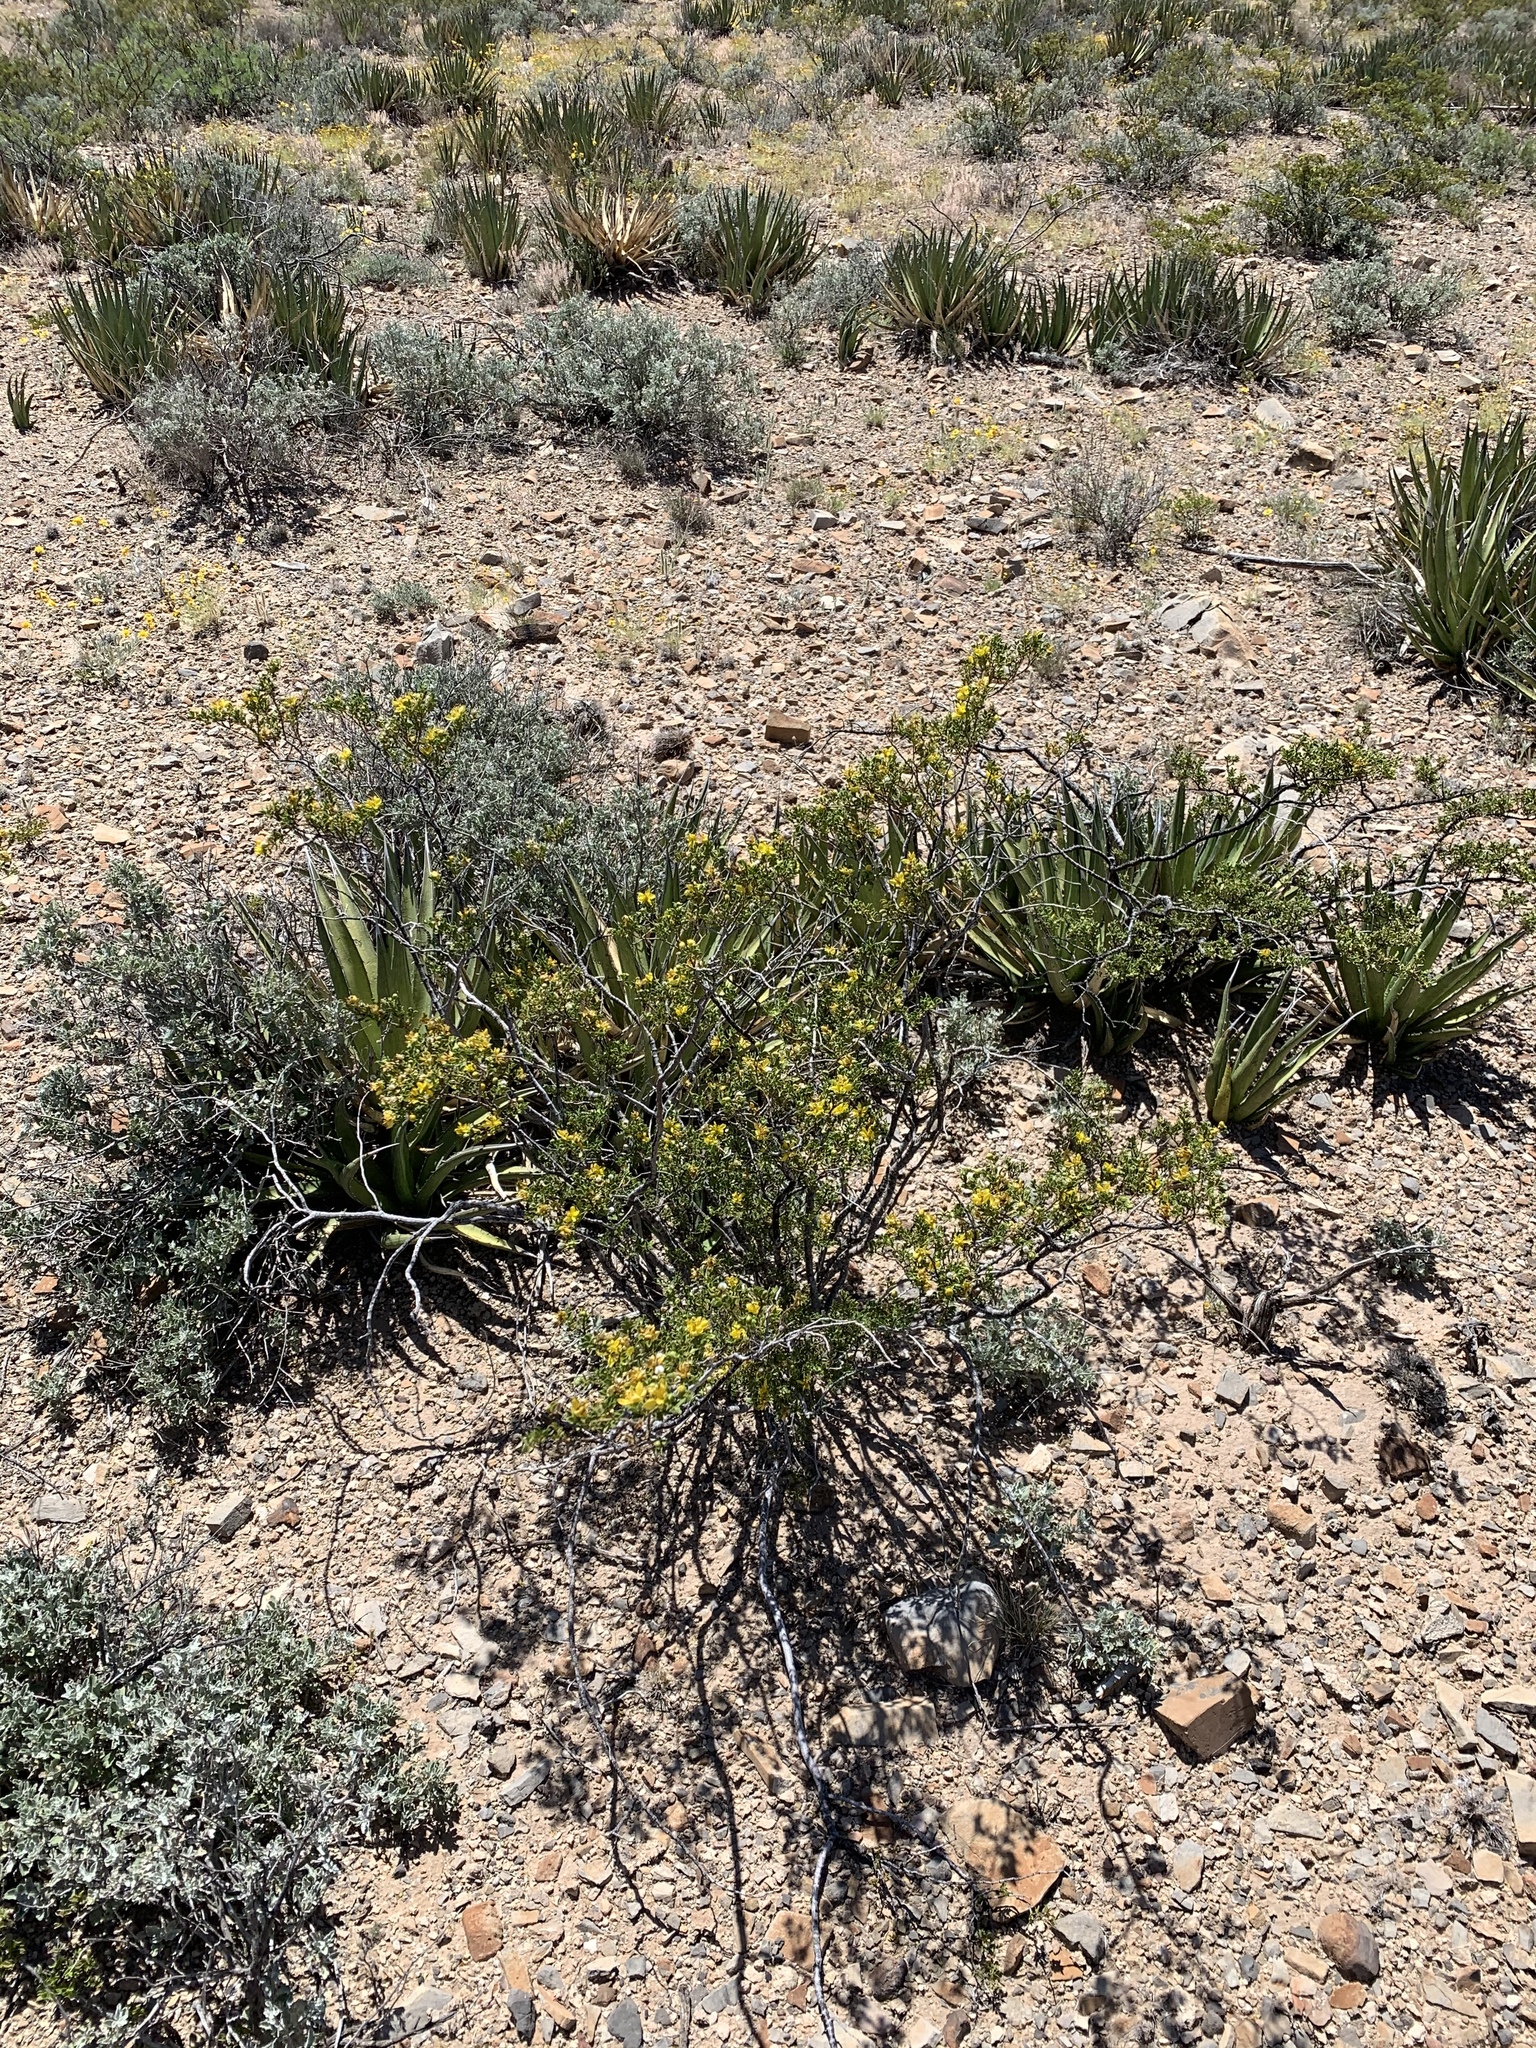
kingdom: Plantae
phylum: Tracheophyta
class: Magnoliopsida
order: Zygophyllales
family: Zygophyllaceae
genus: Larrea
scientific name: Larrea tridentata
